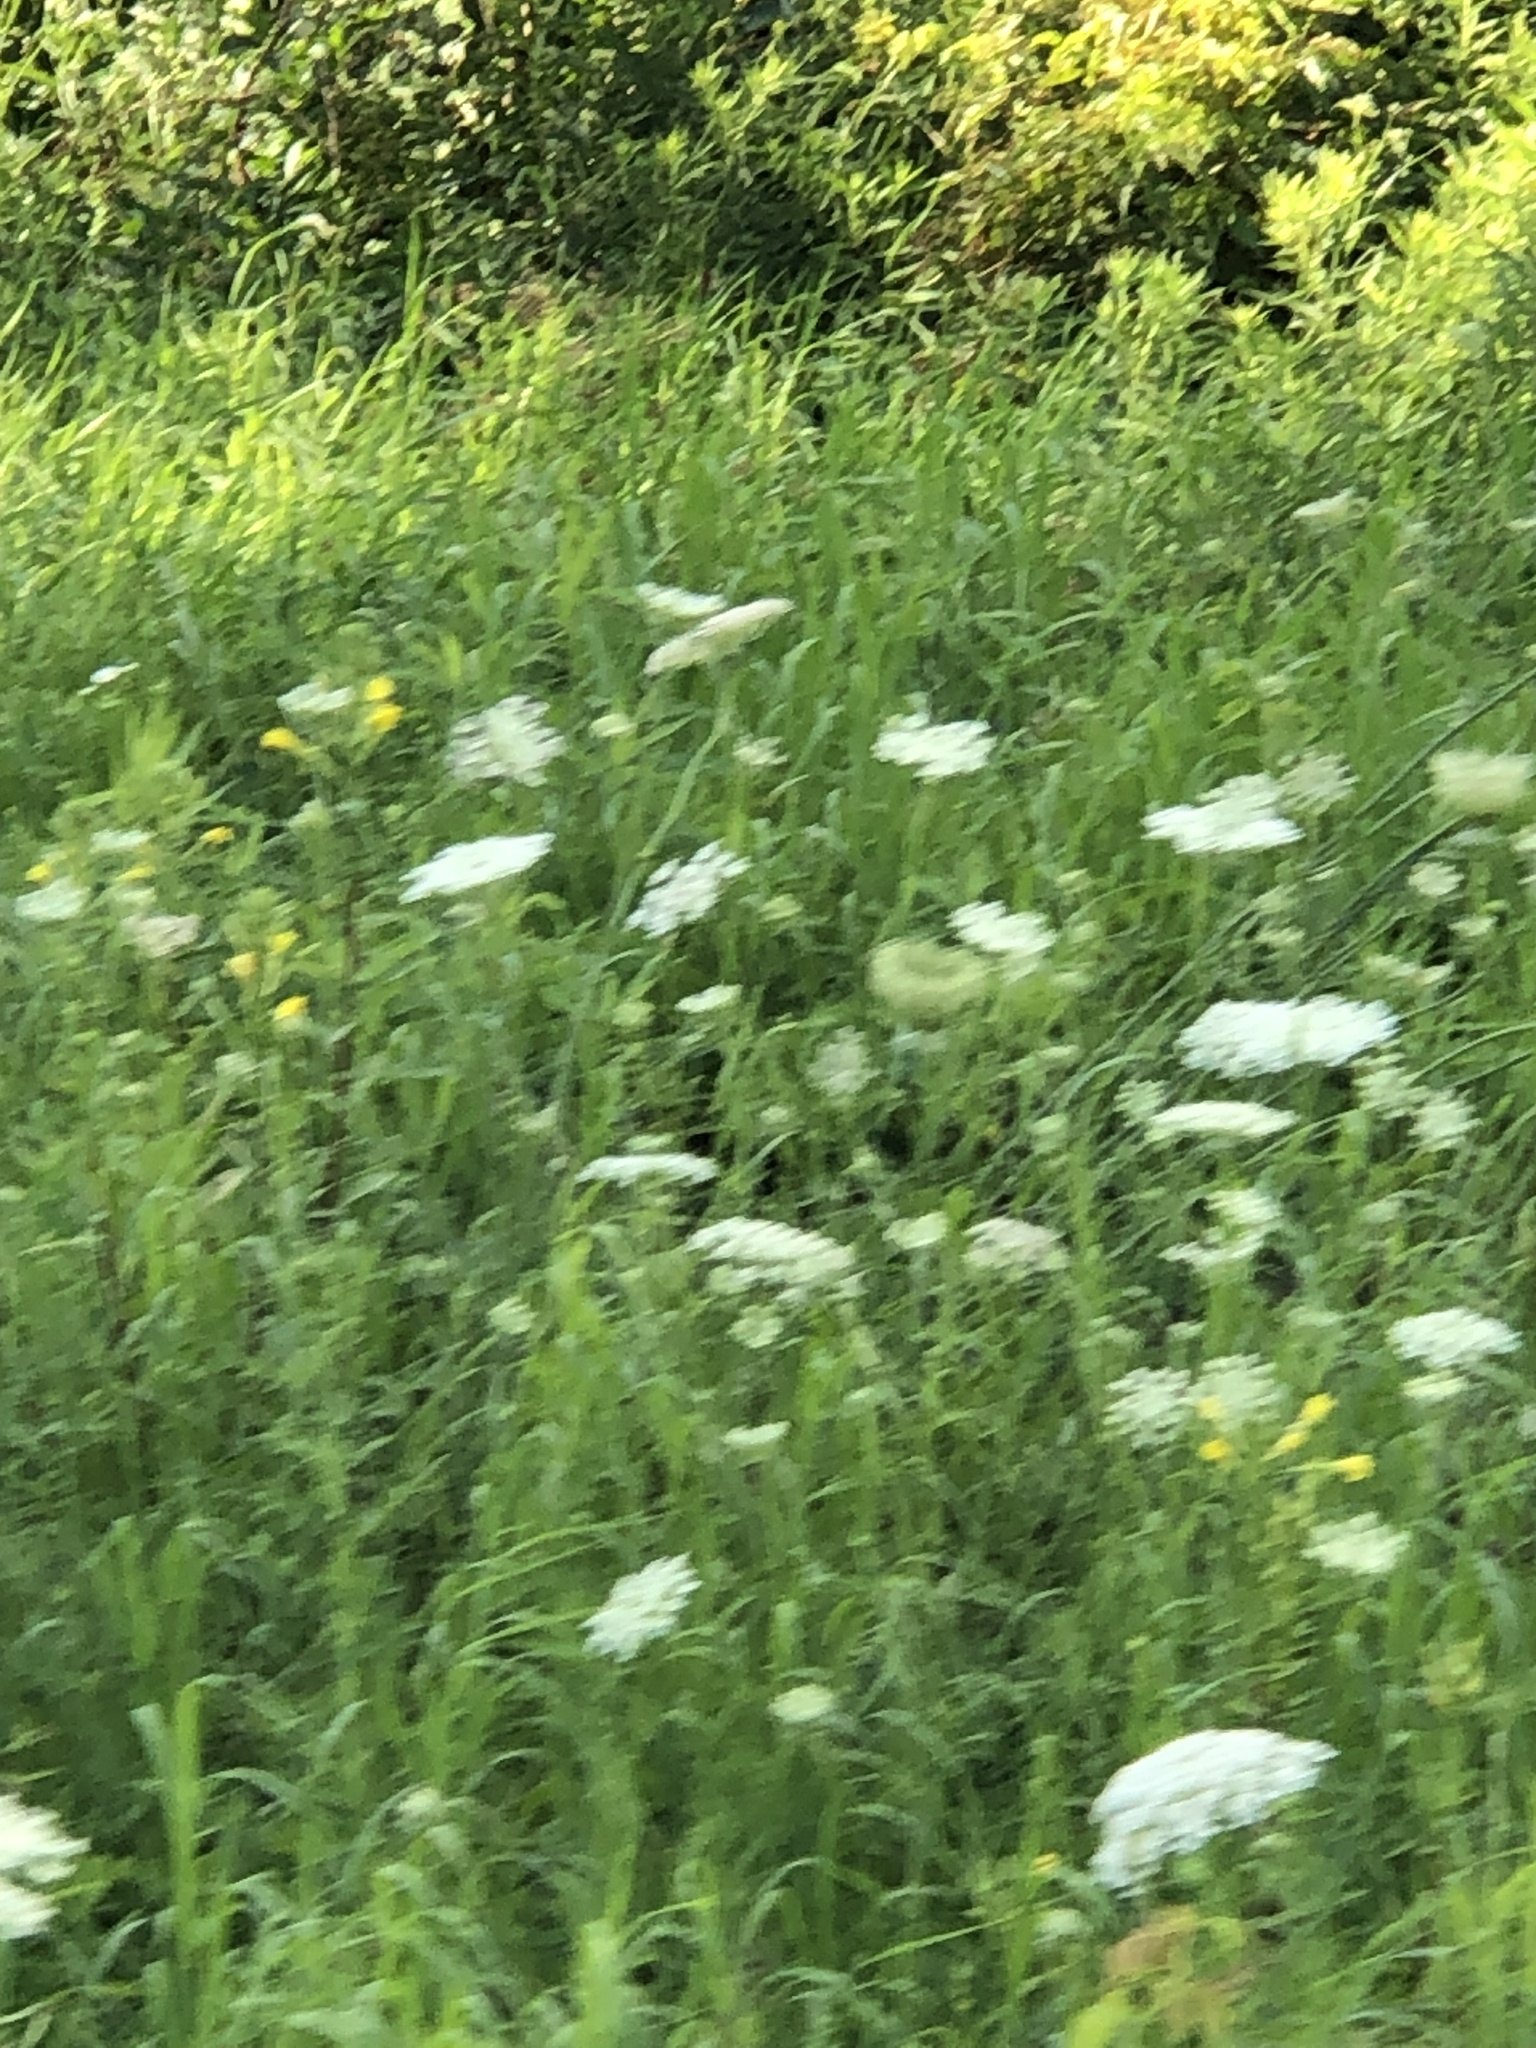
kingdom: Plantae
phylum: Tracheophyta
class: Magnoliopsida
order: Apiales
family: Apiaceae
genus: Daucus
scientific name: Daucus carota
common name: Wild carrot
